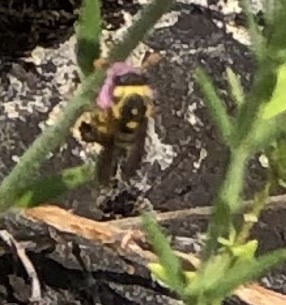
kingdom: Animalia
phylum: Arthropoda
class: Insecta
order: Hymenoptera
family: Masaridae
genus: Celonites
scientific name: Celonites abbreviatus
